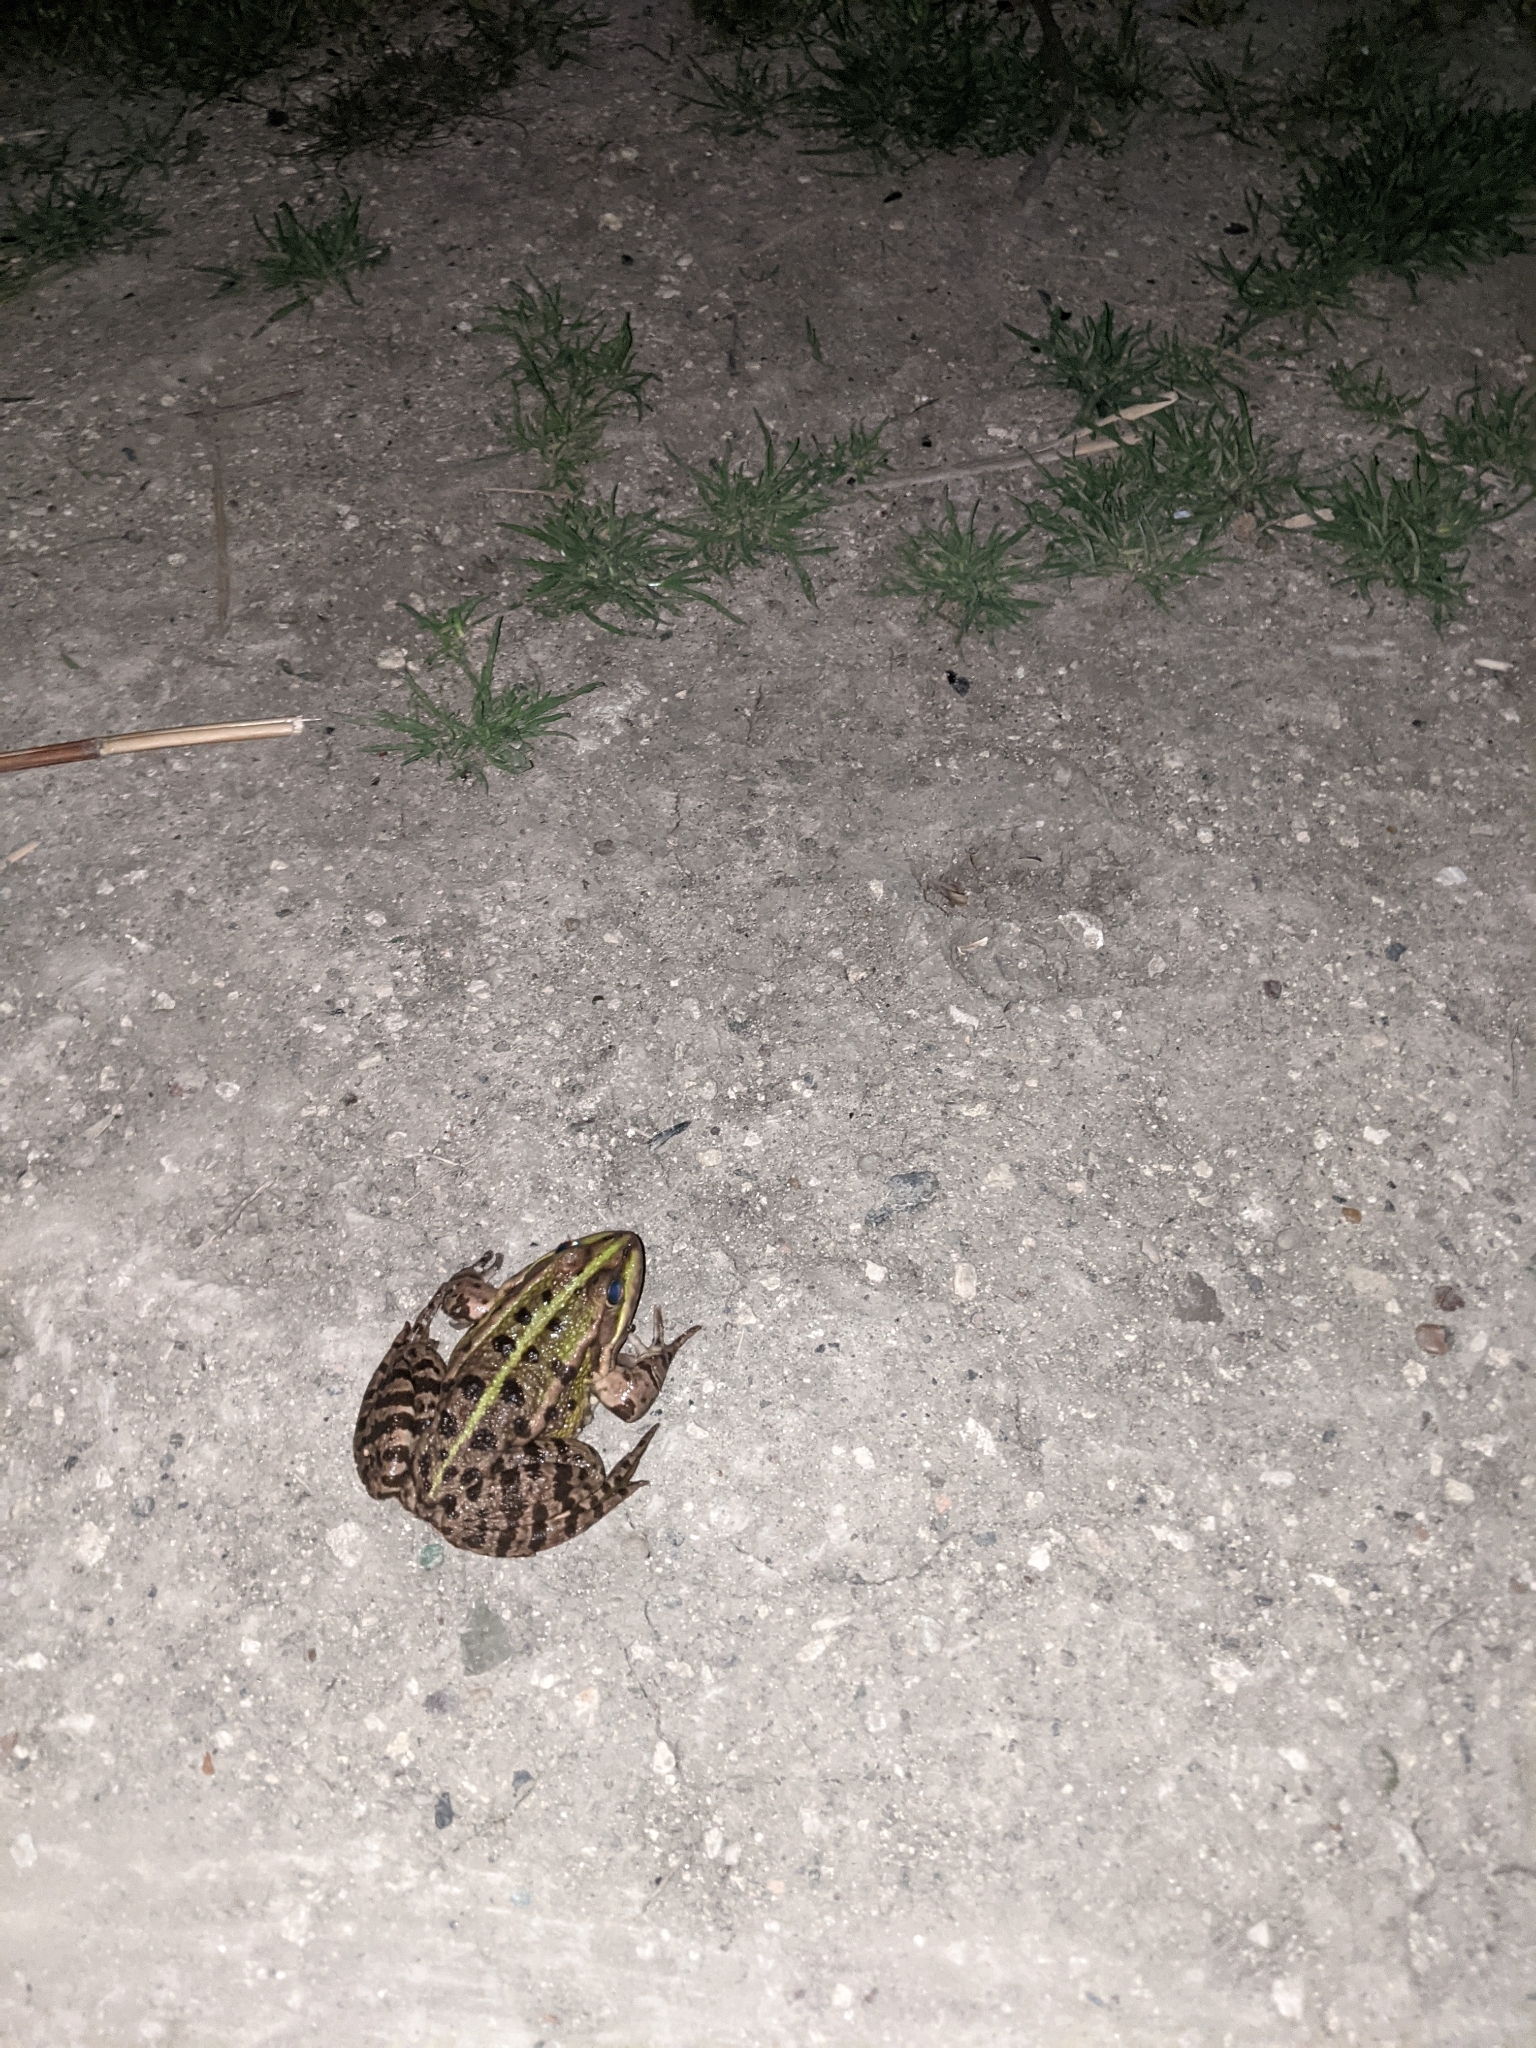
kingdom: Animalia
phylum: Chordata
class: Amphibia
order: Anura
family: Ranidae
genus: Pelophylax
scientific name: Pelophylax ridibundus
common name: Marsh frog
